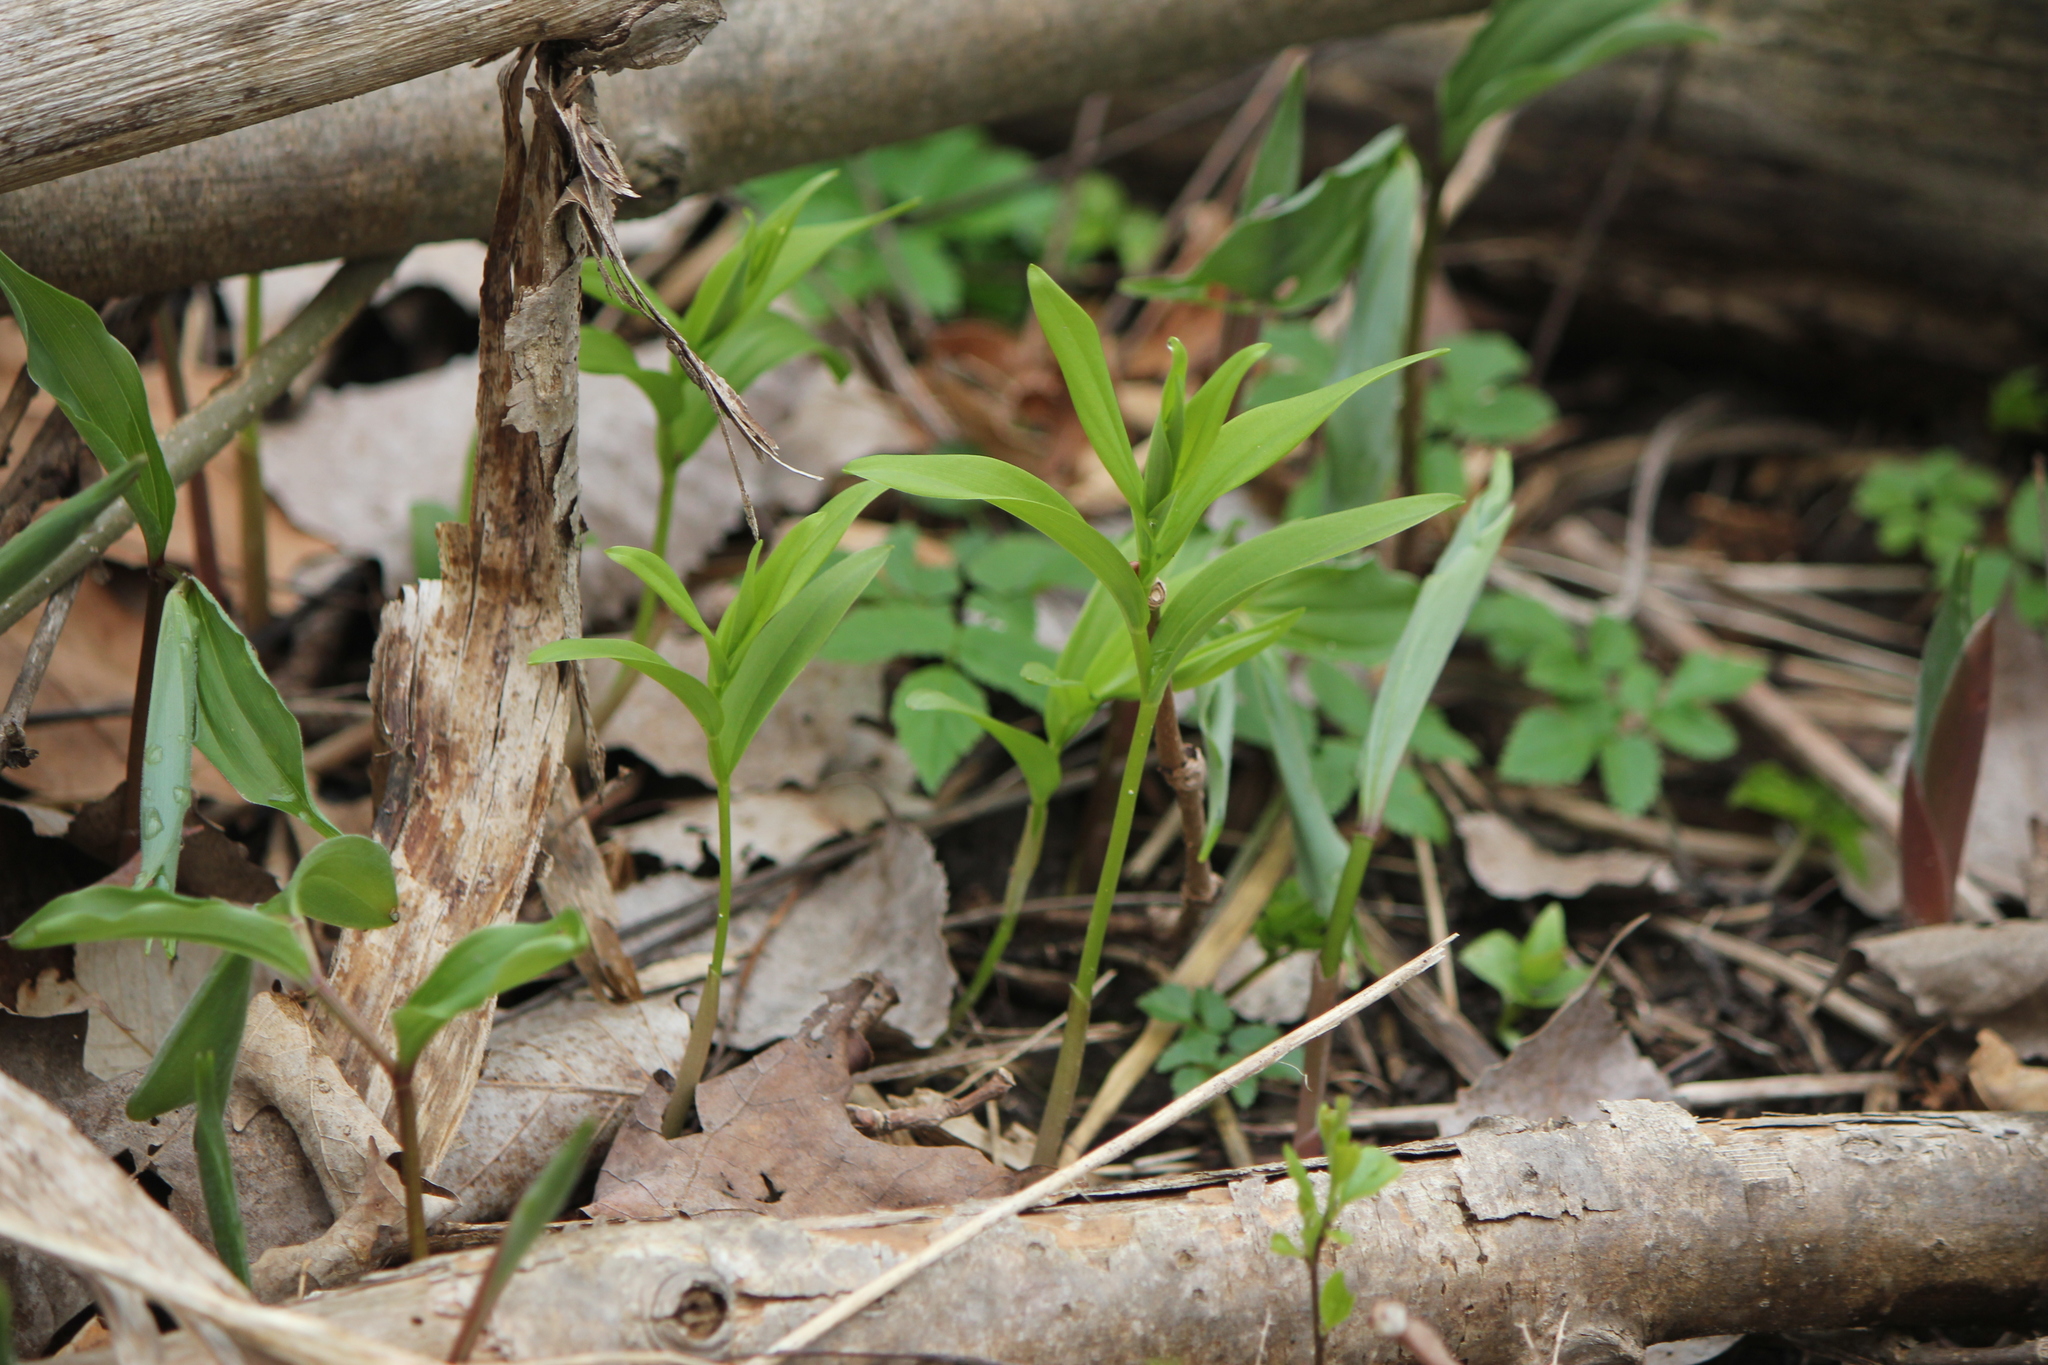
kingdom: Plantae
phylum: Tracheophyta
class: Liliopsida
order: Asparagales
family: Asparagaceae
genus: Maianthemum
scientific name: Maianthemum stellatum
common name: Little false solomon's seal
